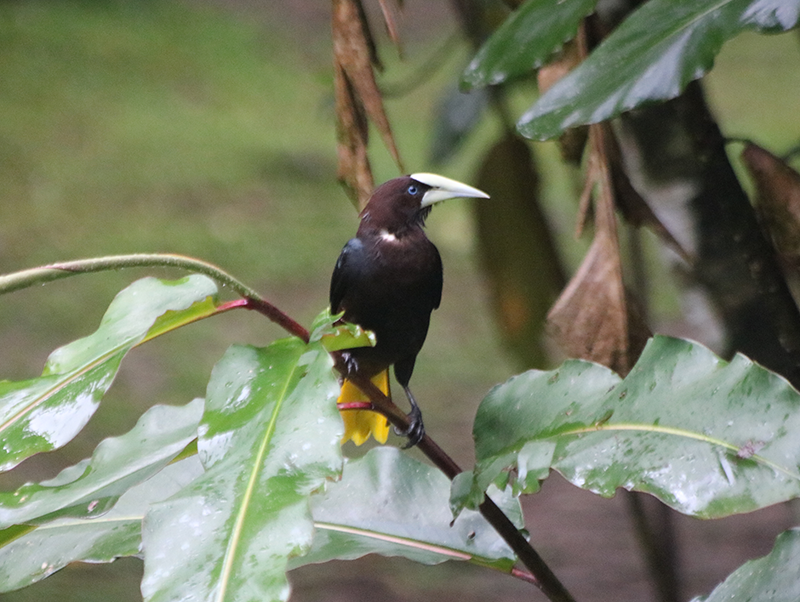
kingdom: Animalia
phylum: Chordata
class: Aves
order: Passeriformes
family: Icteridae
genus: Psarocolius
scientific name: Psarocolius wagleri
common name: Chestnut-headed oropendola
